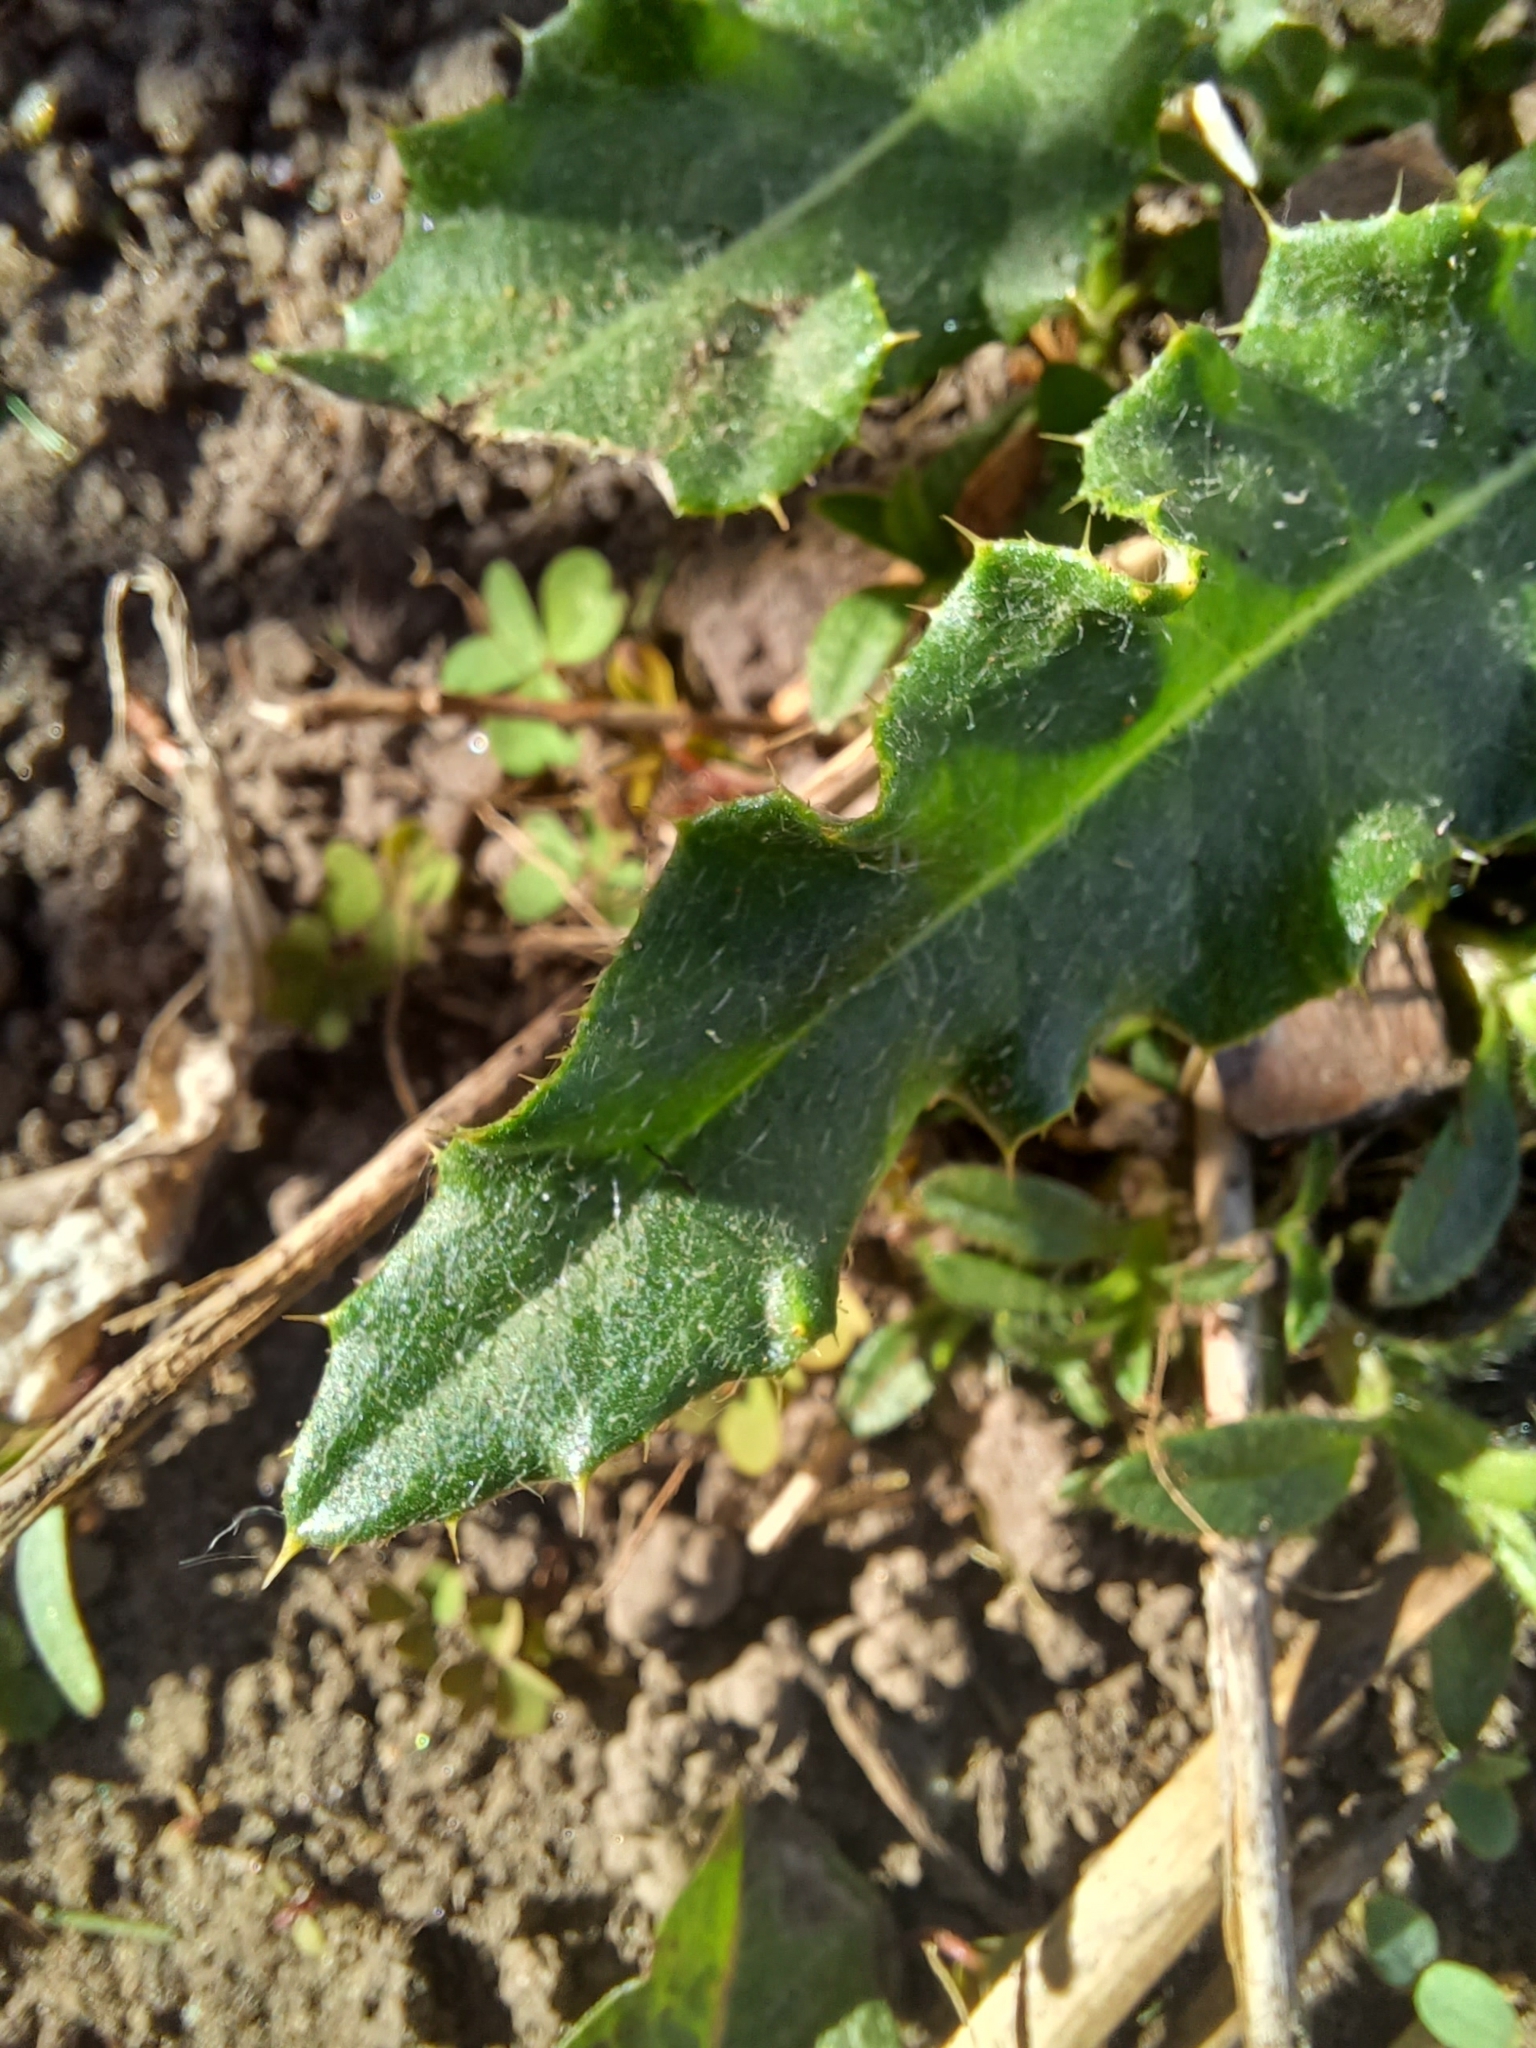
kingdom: Plantae
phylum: Tracheophyta
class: Magnoliopsida
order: Asterales
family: Asteraceae
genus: Cirsium
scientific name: Cirsium arvense
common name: Creeping thistle
